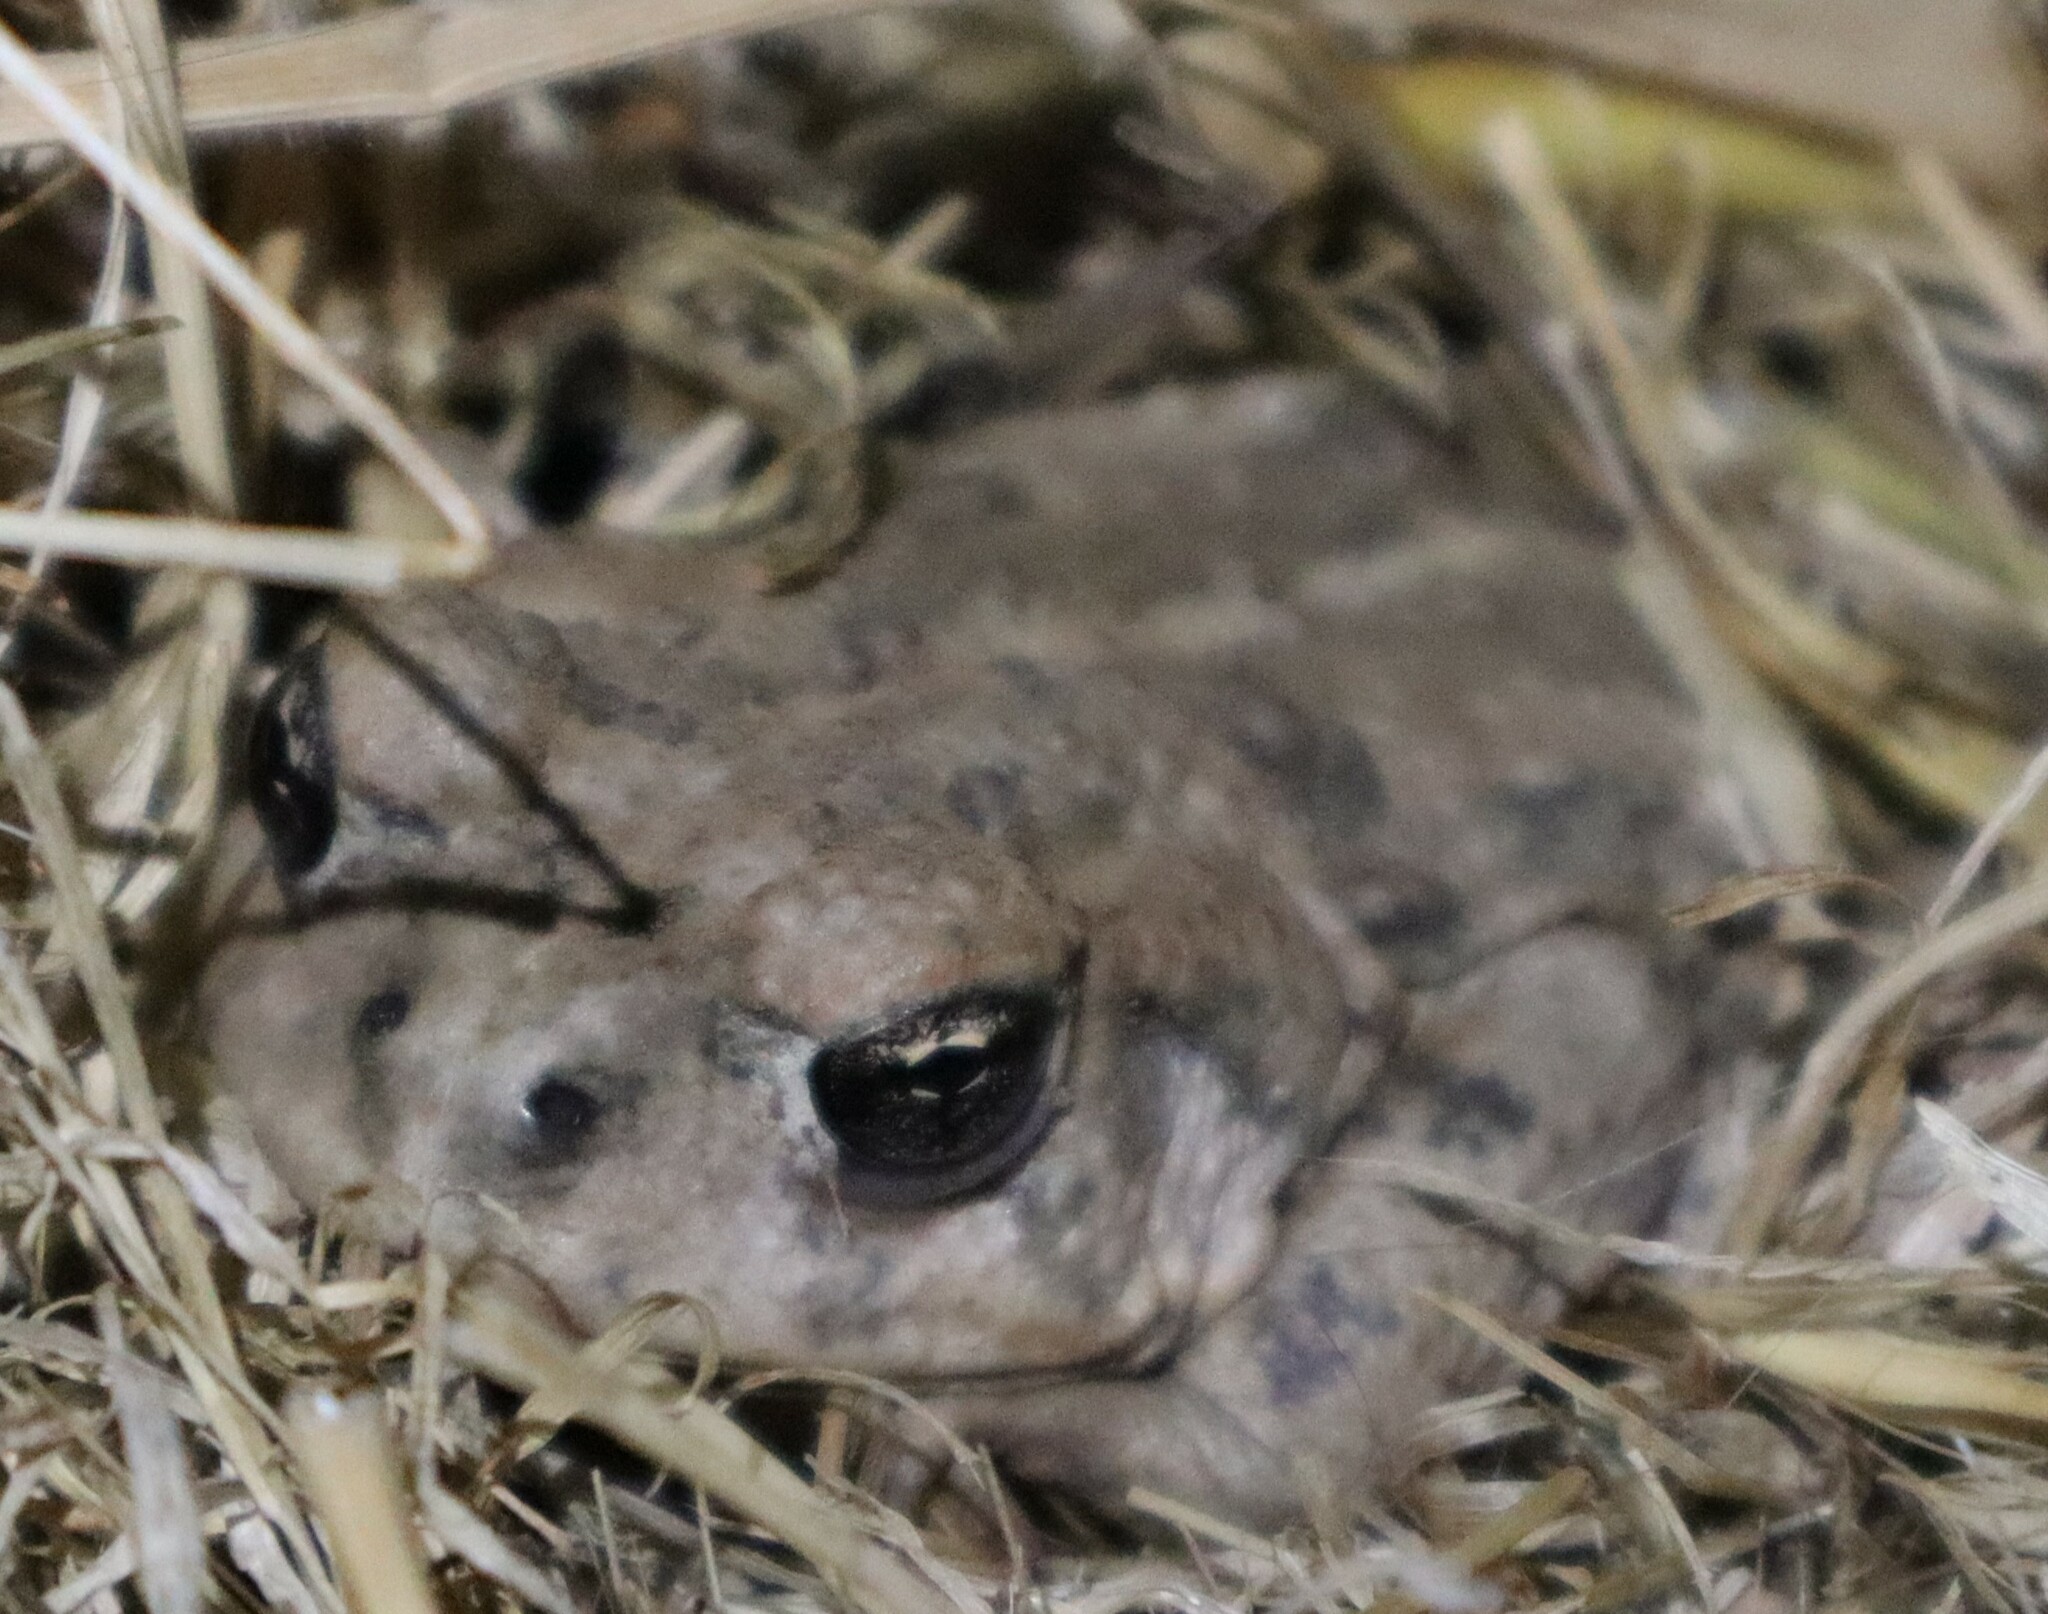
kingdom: Animalia
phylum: Chordata
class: Amphibia
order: Anura
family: Bufonidae
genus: Anaxyrus
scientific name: Anaxyrus boreas
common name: Western toad
